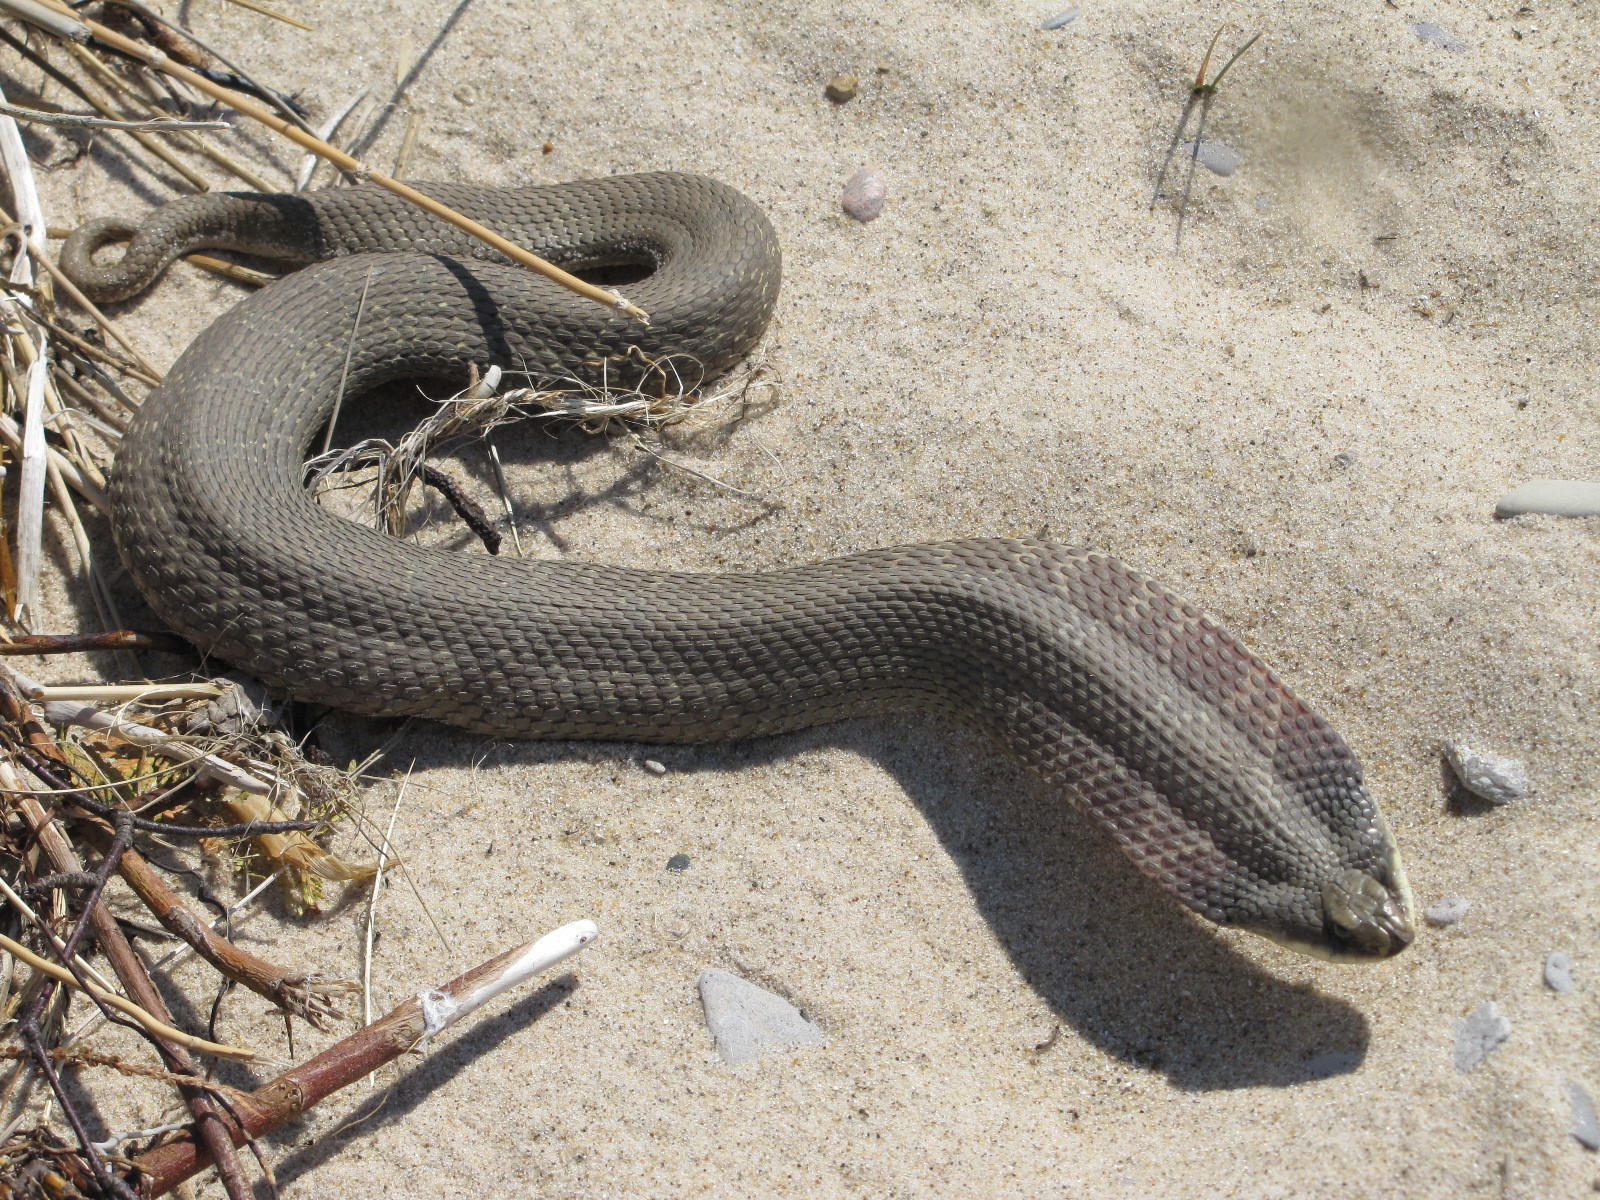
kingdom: Animalia
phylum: Chordata
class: Squamata
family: Colubridae
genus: Heterodon
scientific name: Heterodon platirhinos
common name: Eastern hognose snake
